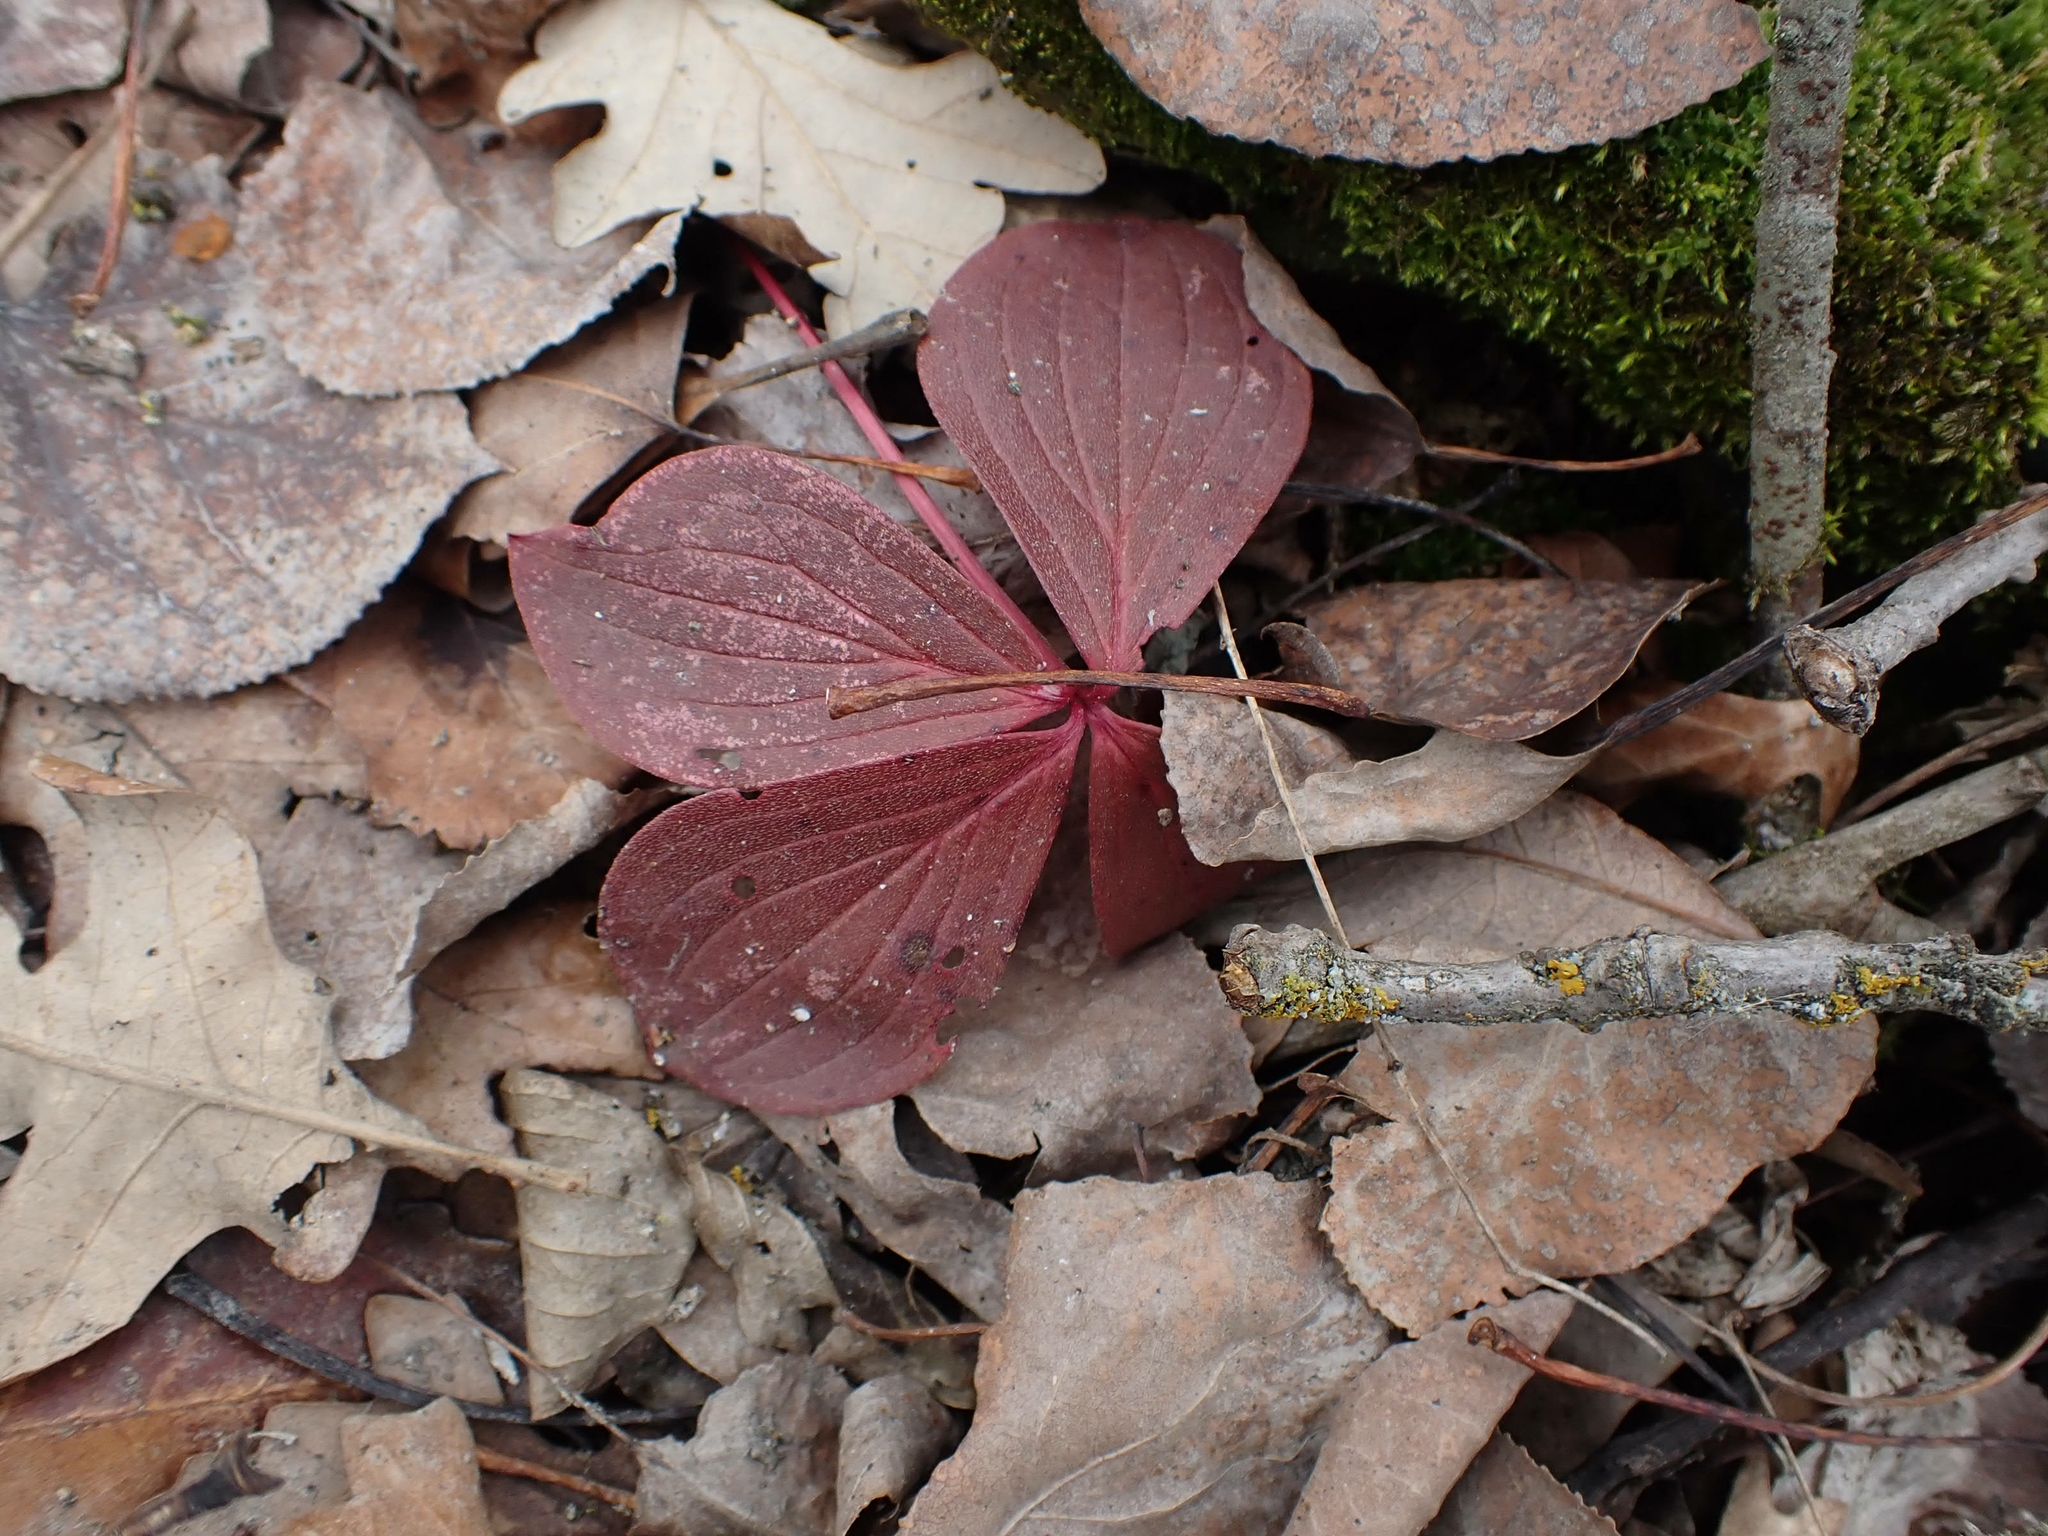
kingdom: Plantae
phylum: Tracheophyta
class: Magnoliopsida
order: Cornales
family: Cornaceae
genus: Cornus
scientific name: Cornus canadensis
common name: Creeping dogwood
